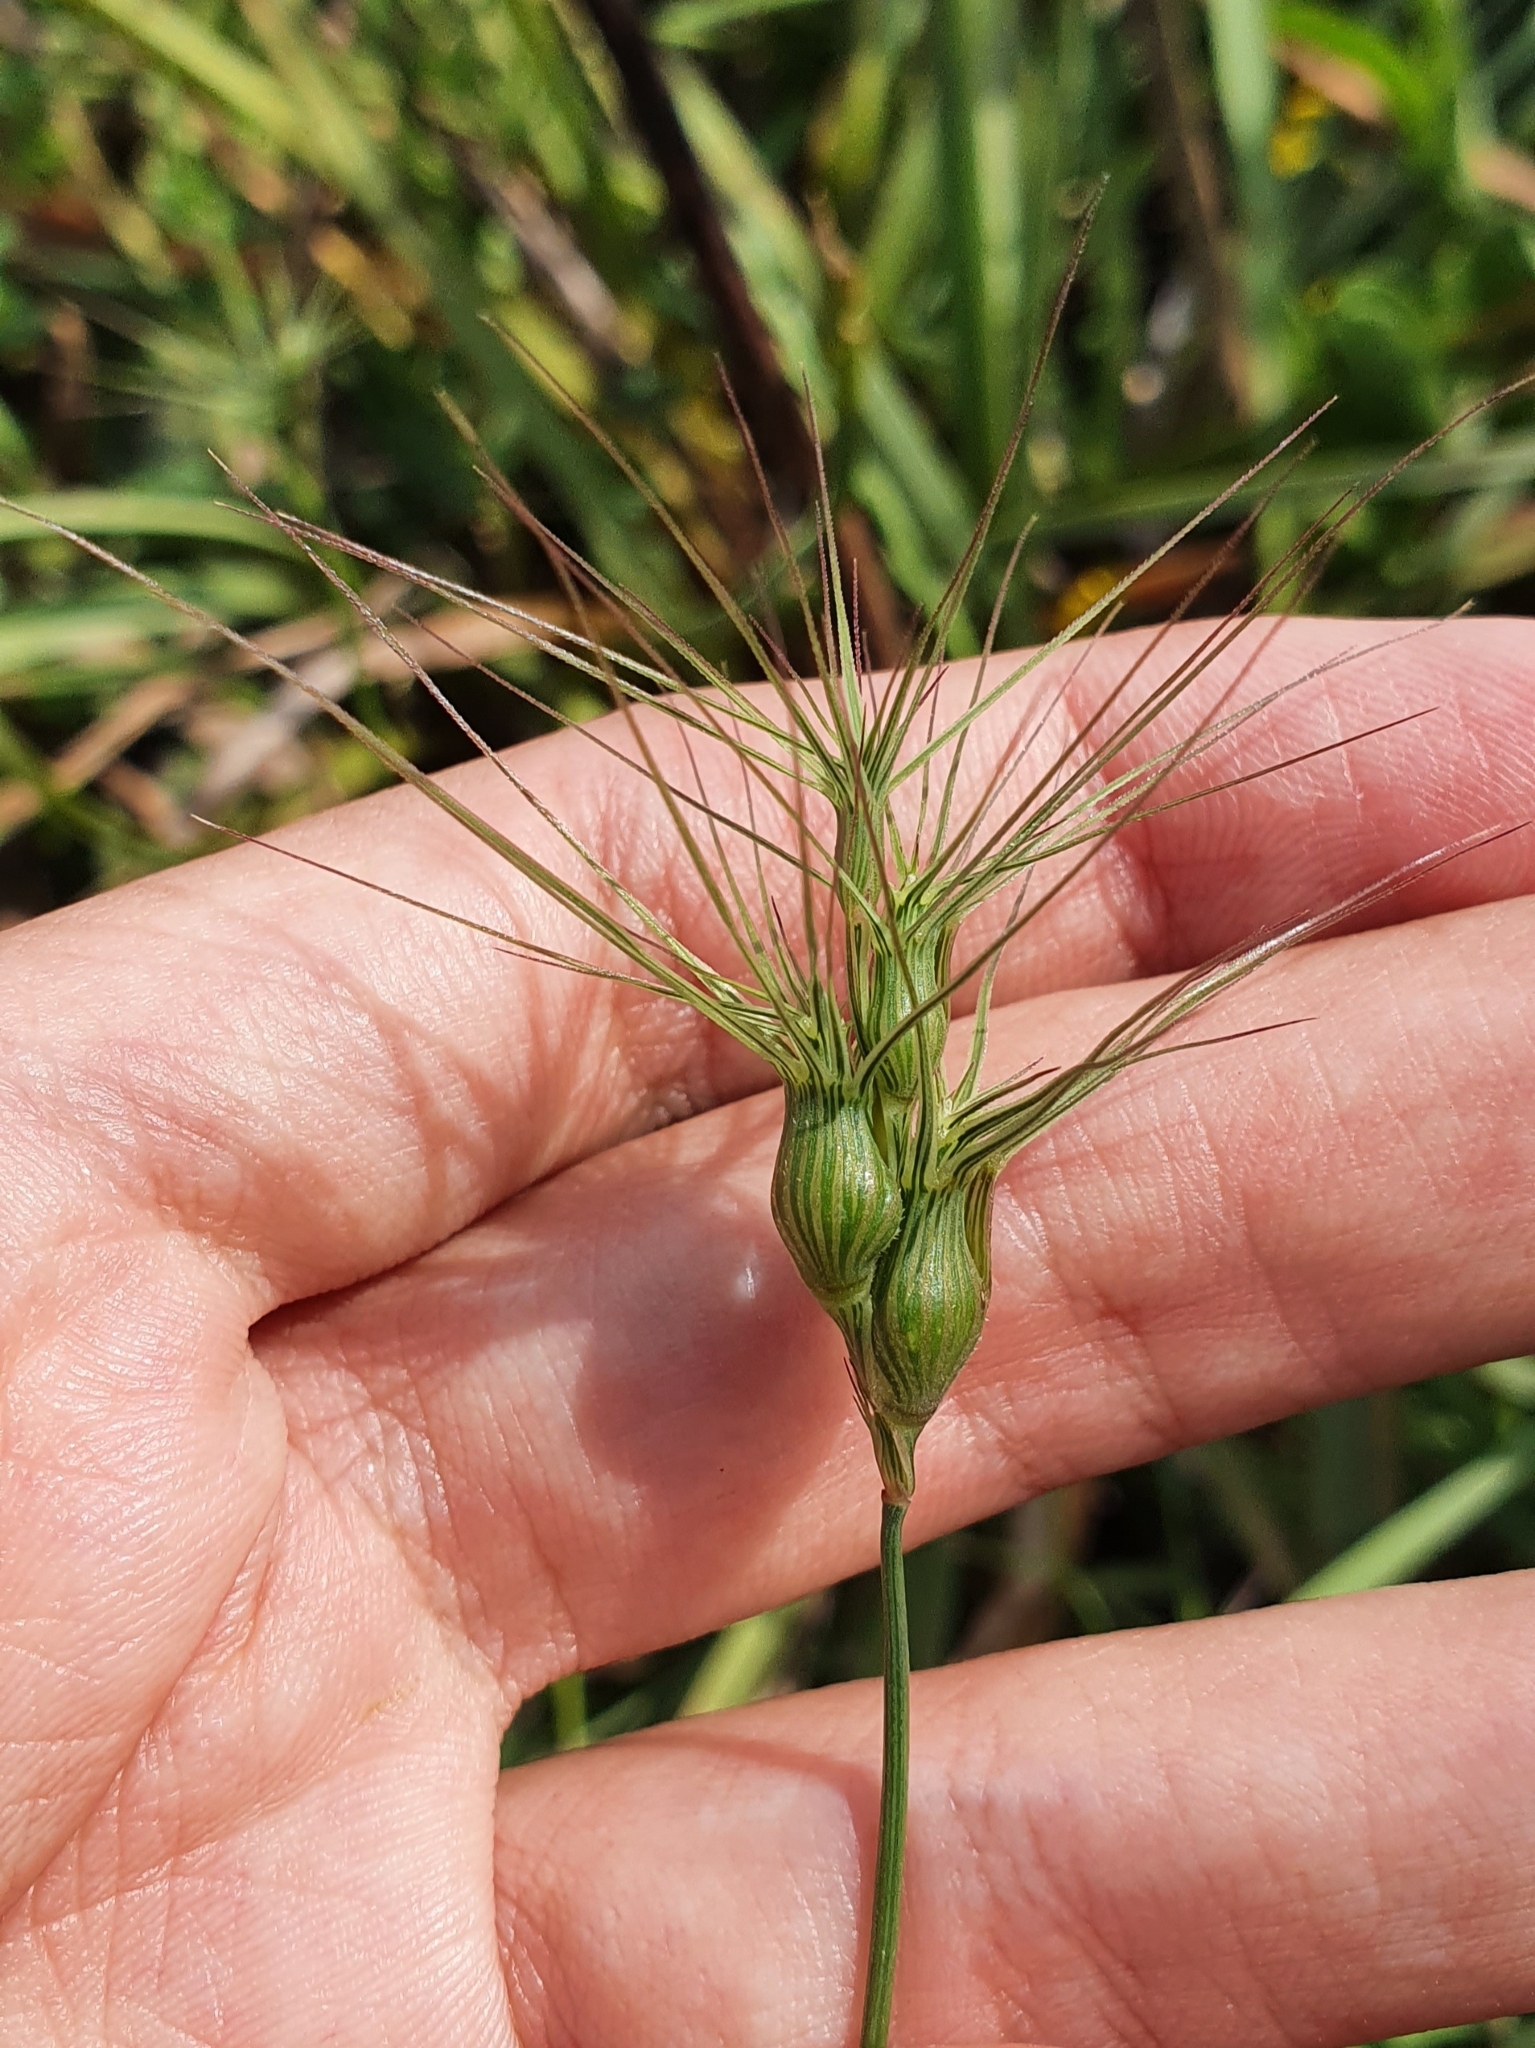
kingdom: Plantae
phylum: Tracheophyta
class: Liliopsida
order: Poales
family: Poaceae
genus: Aegilops
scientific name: Aegilops geniculata
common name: Ovate goat grass
